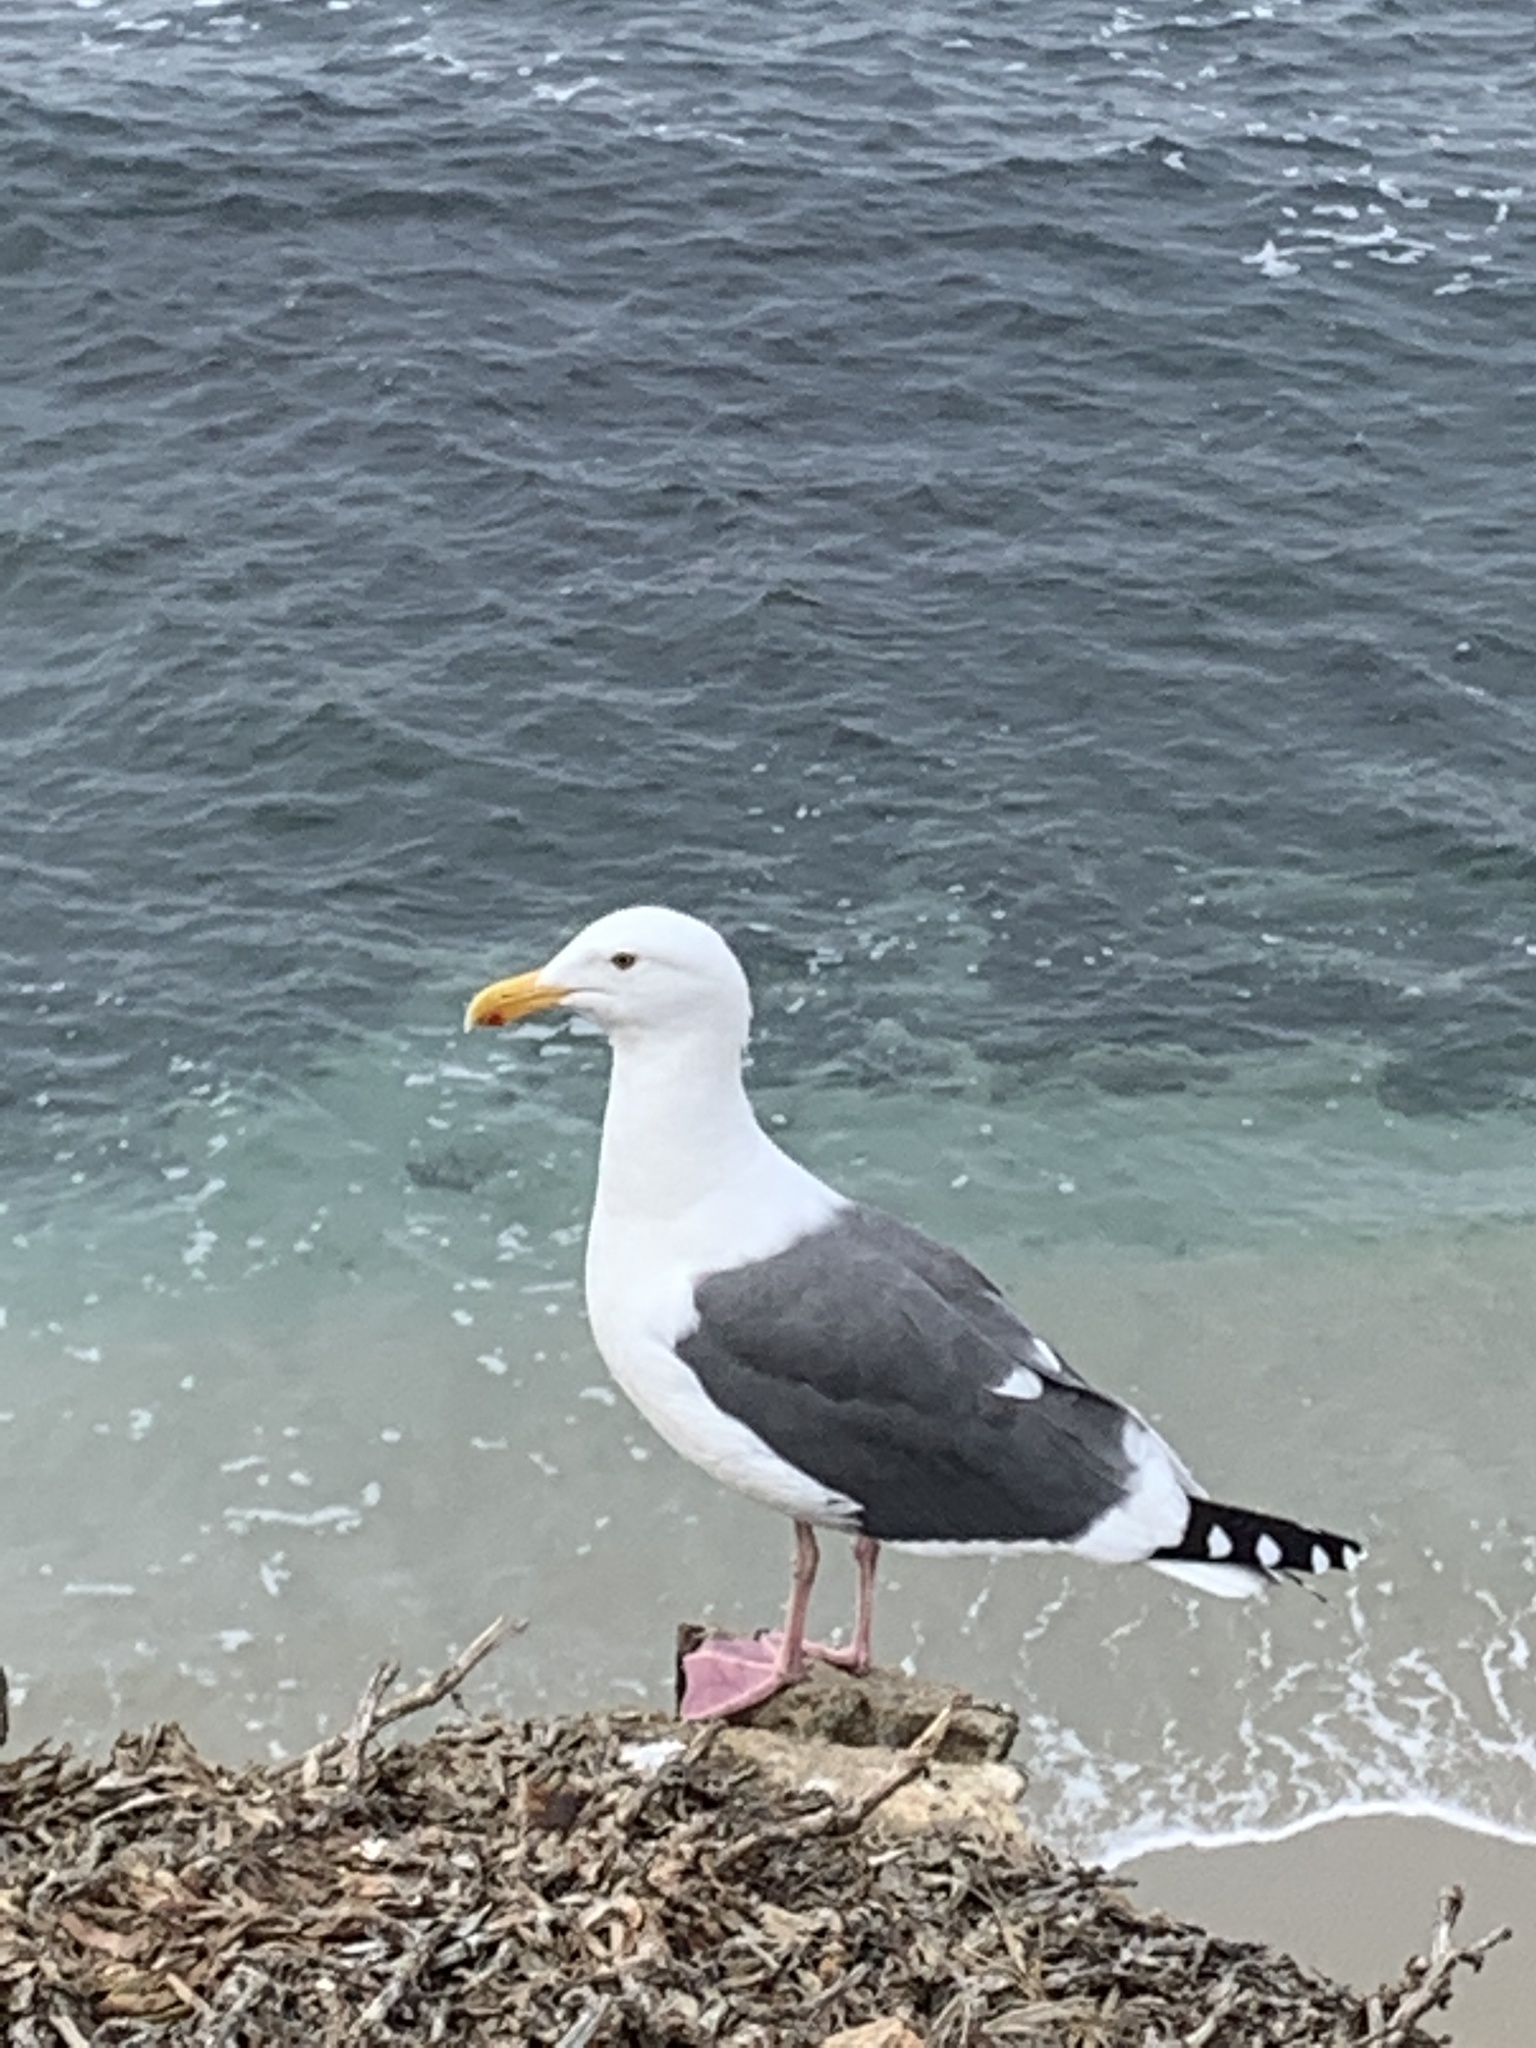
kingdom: Animalia
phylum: Chordata
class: Aves
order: Charadriiformes
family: Laridae
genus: Larus
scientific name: Larus occidentalis
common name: Western gull
